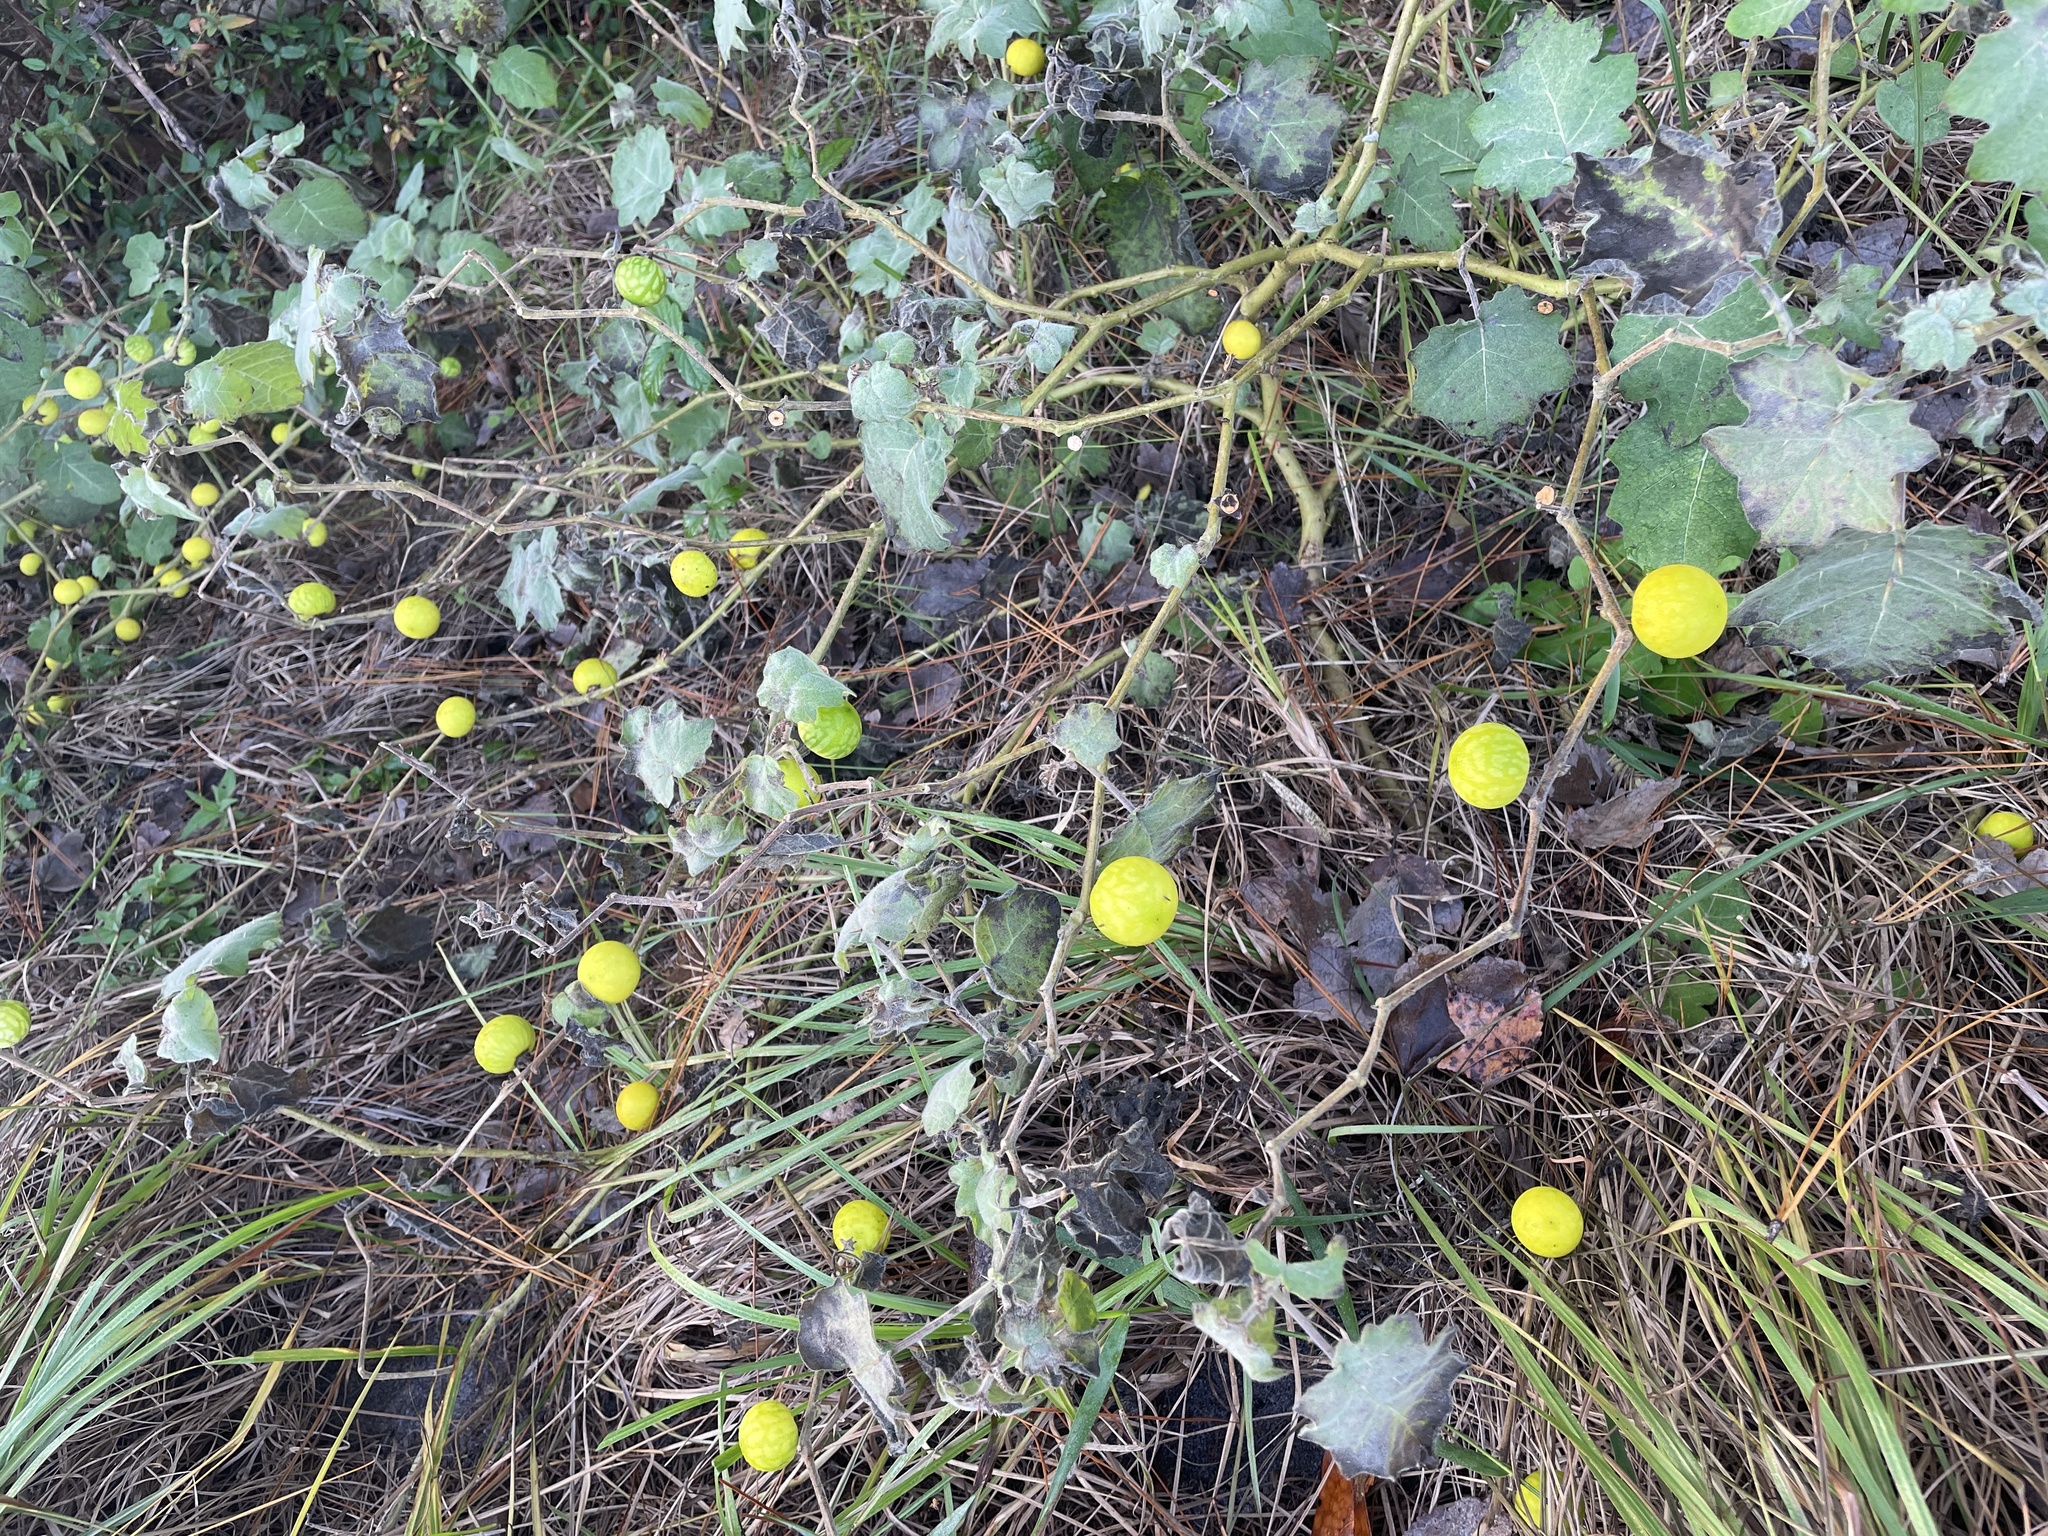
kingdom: Plantae
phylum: Tracheophyta
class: Magnoliopsida
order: Solanales
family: Solanaceae
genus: Solanum
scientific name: Solanum viarum
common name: Tropical soda apple
